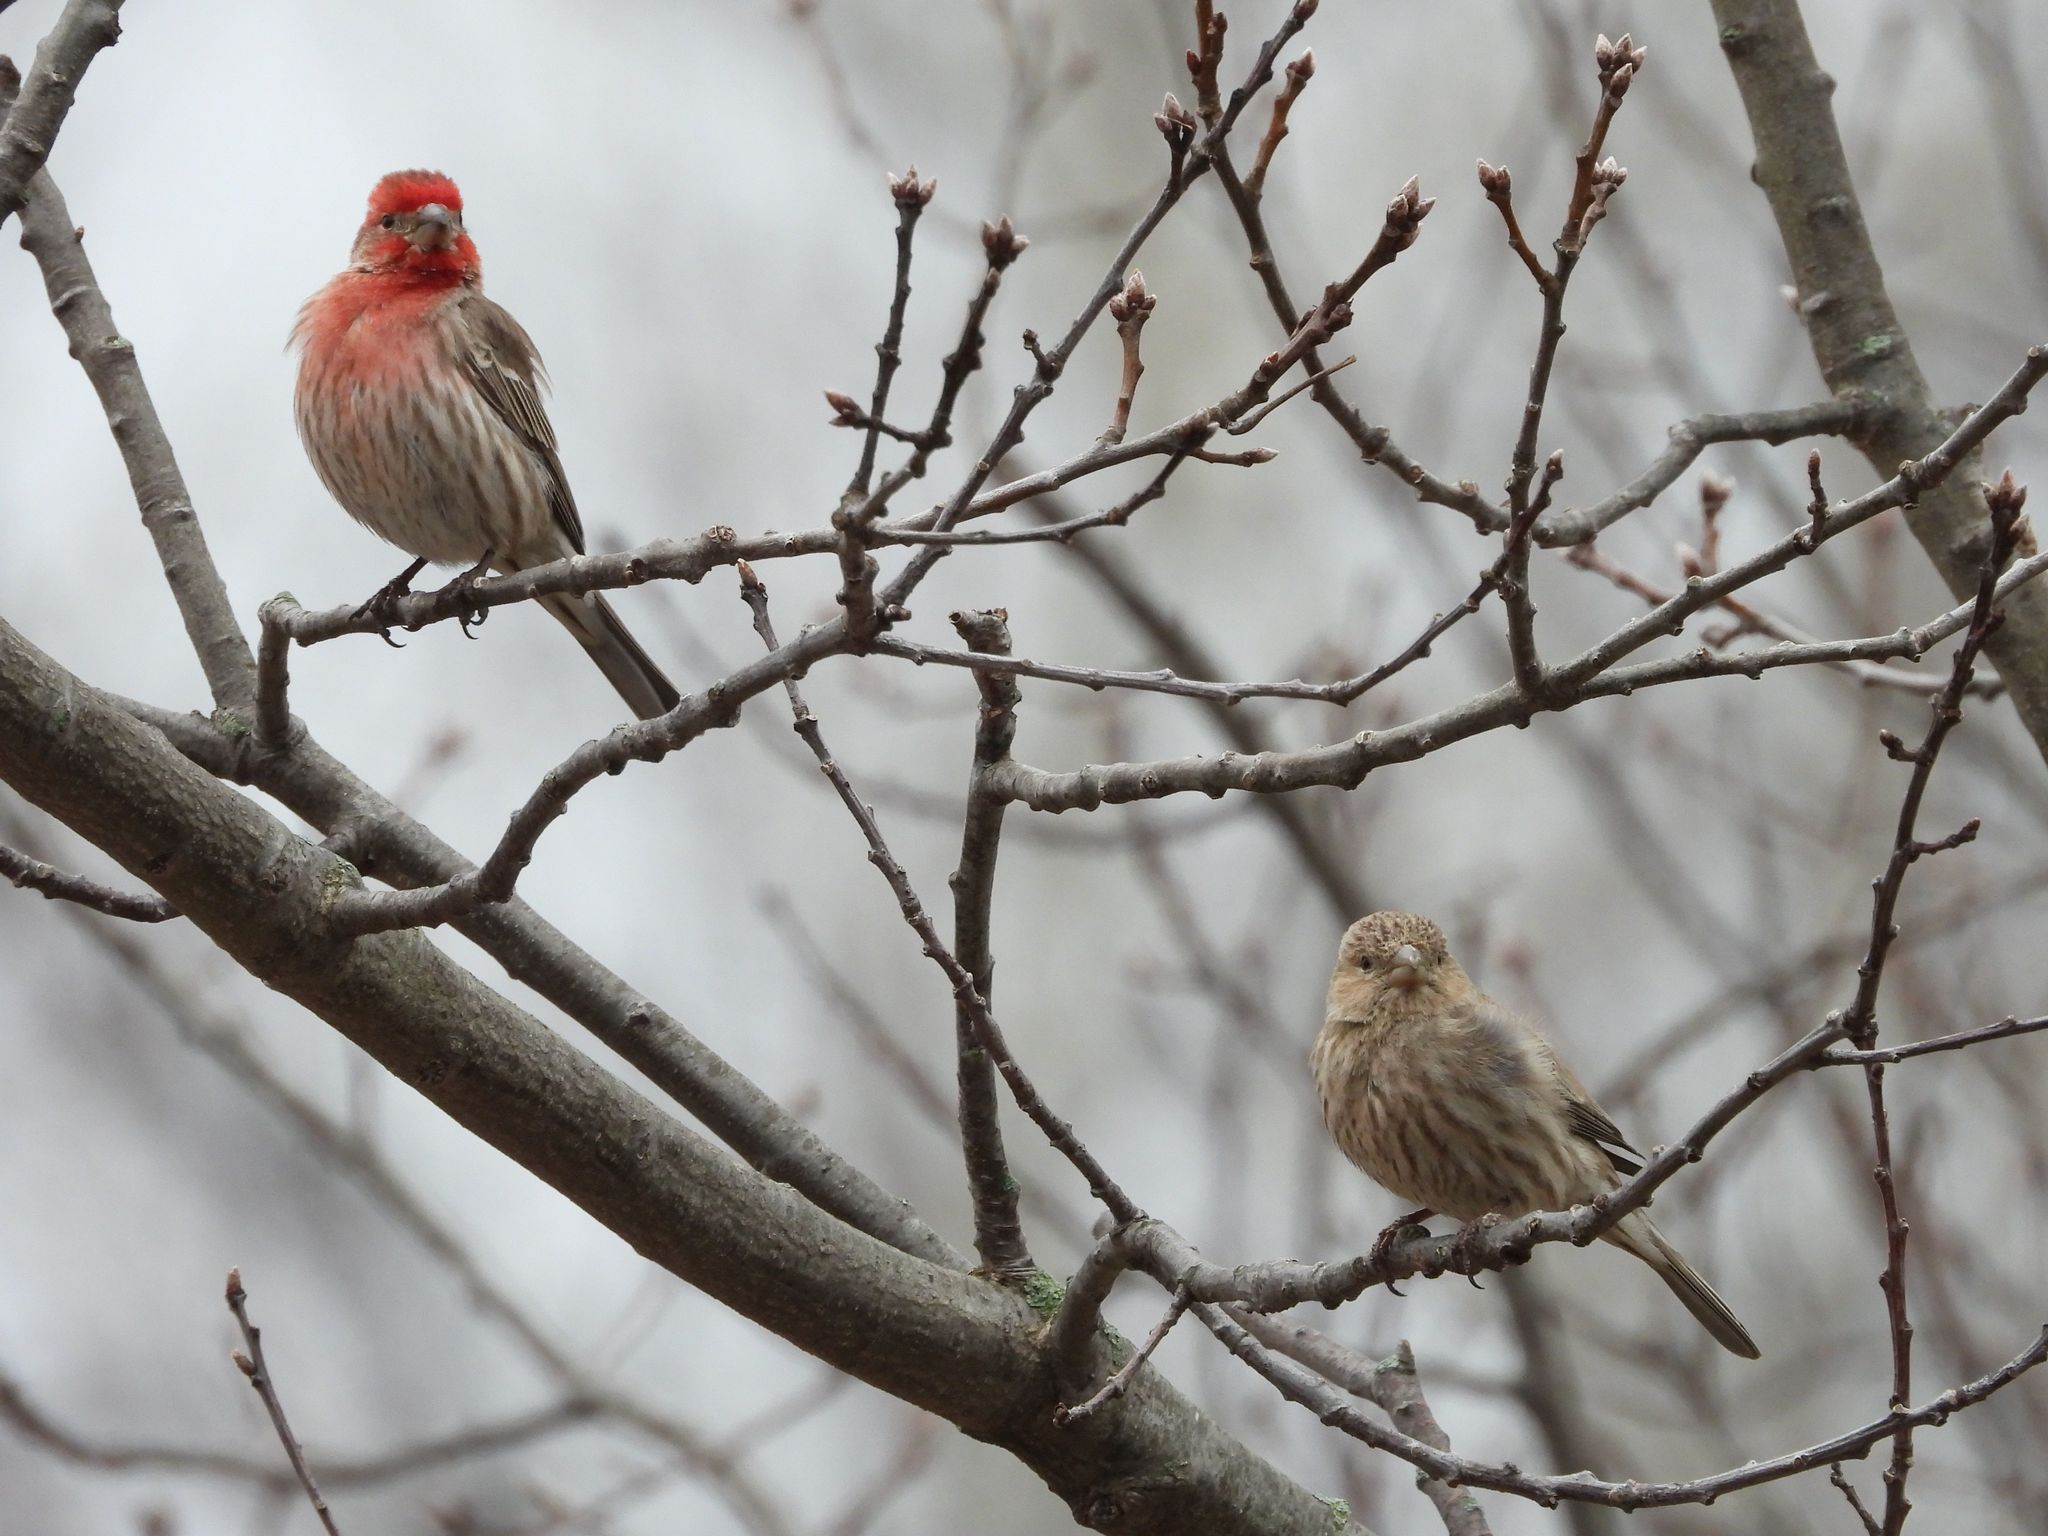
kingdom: Animalia
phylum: Chordata
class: Aves
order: Passeriformes
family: Fringillidae
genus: Haemorhous
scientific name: Haemorhous mexicanus
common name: House finch
